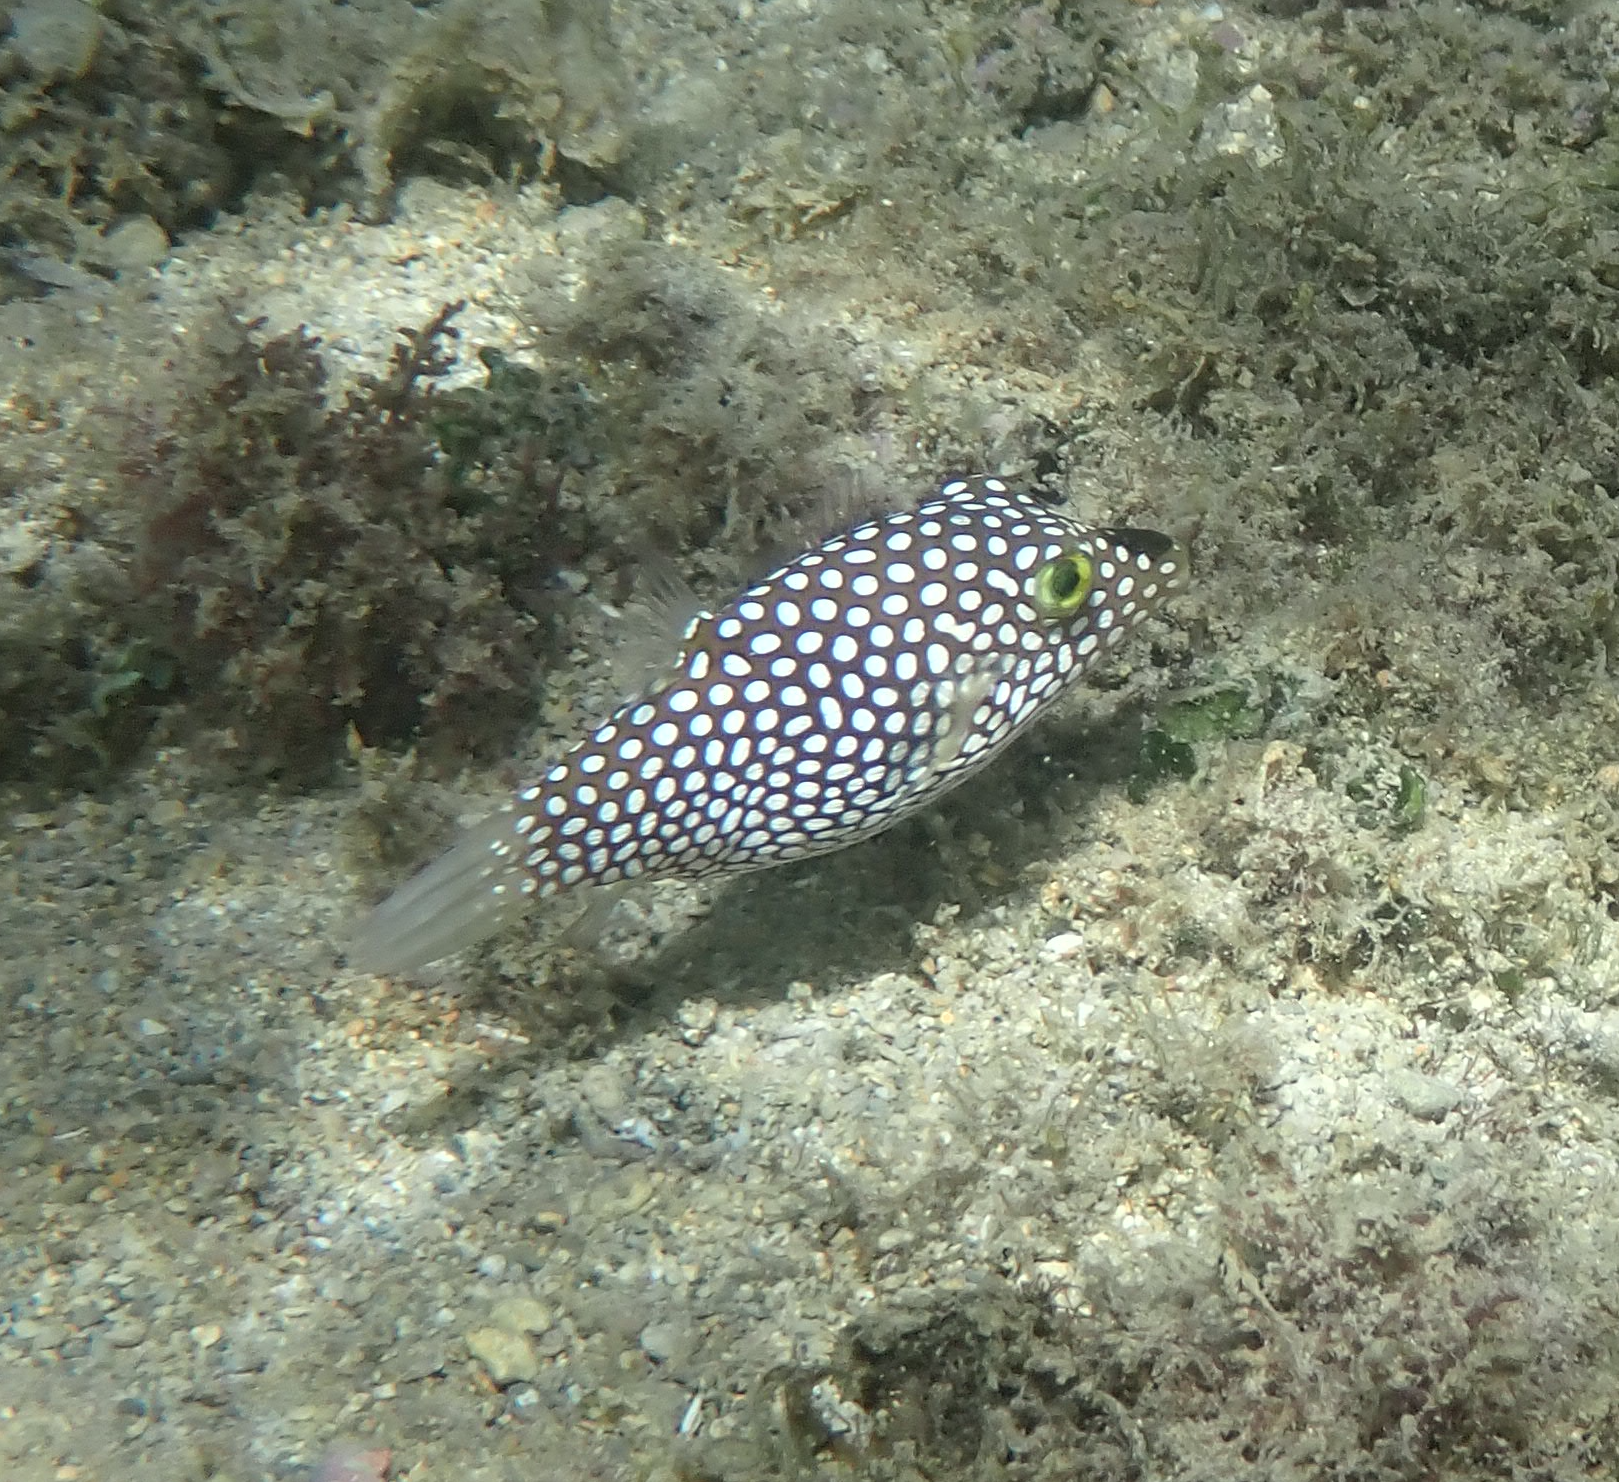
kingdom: Animalia
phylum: Chordata
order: Tetraodontiformes
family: Tetraodontidae
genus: Canthigaster
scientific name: Canthigaster jactator
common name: Hawaiian whitespotted toby
